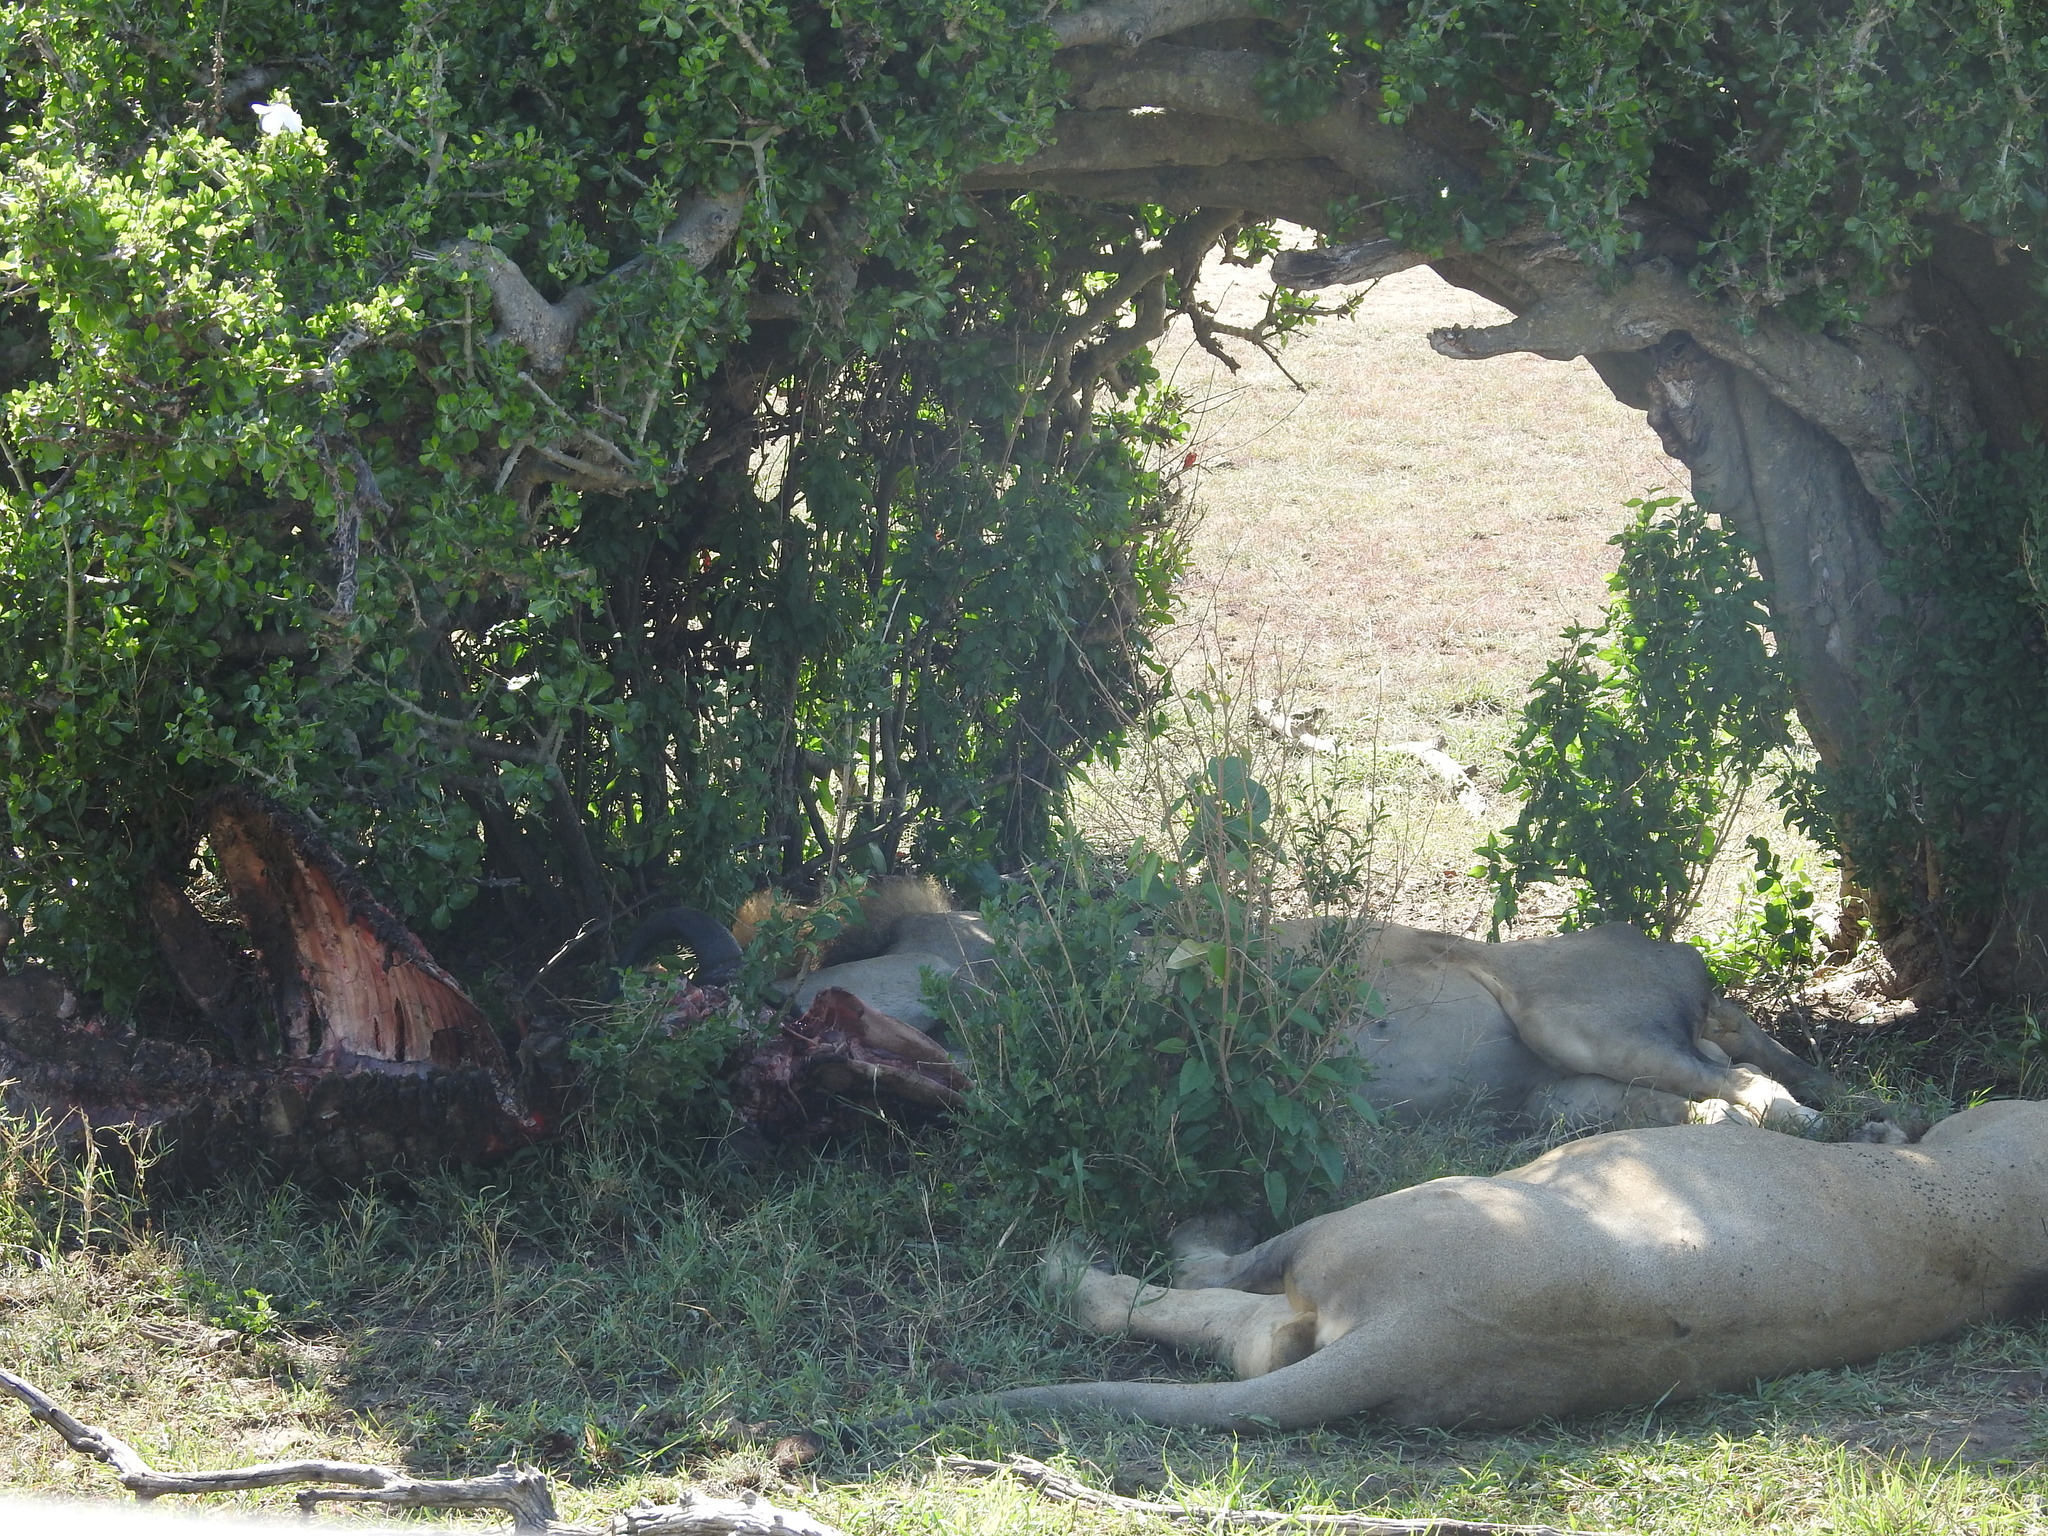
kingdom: Animalia
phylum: Chordata
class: Mammalia
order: Carnivora
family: Felidae
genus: Panthera
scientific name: Panthera leo
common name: Lion
